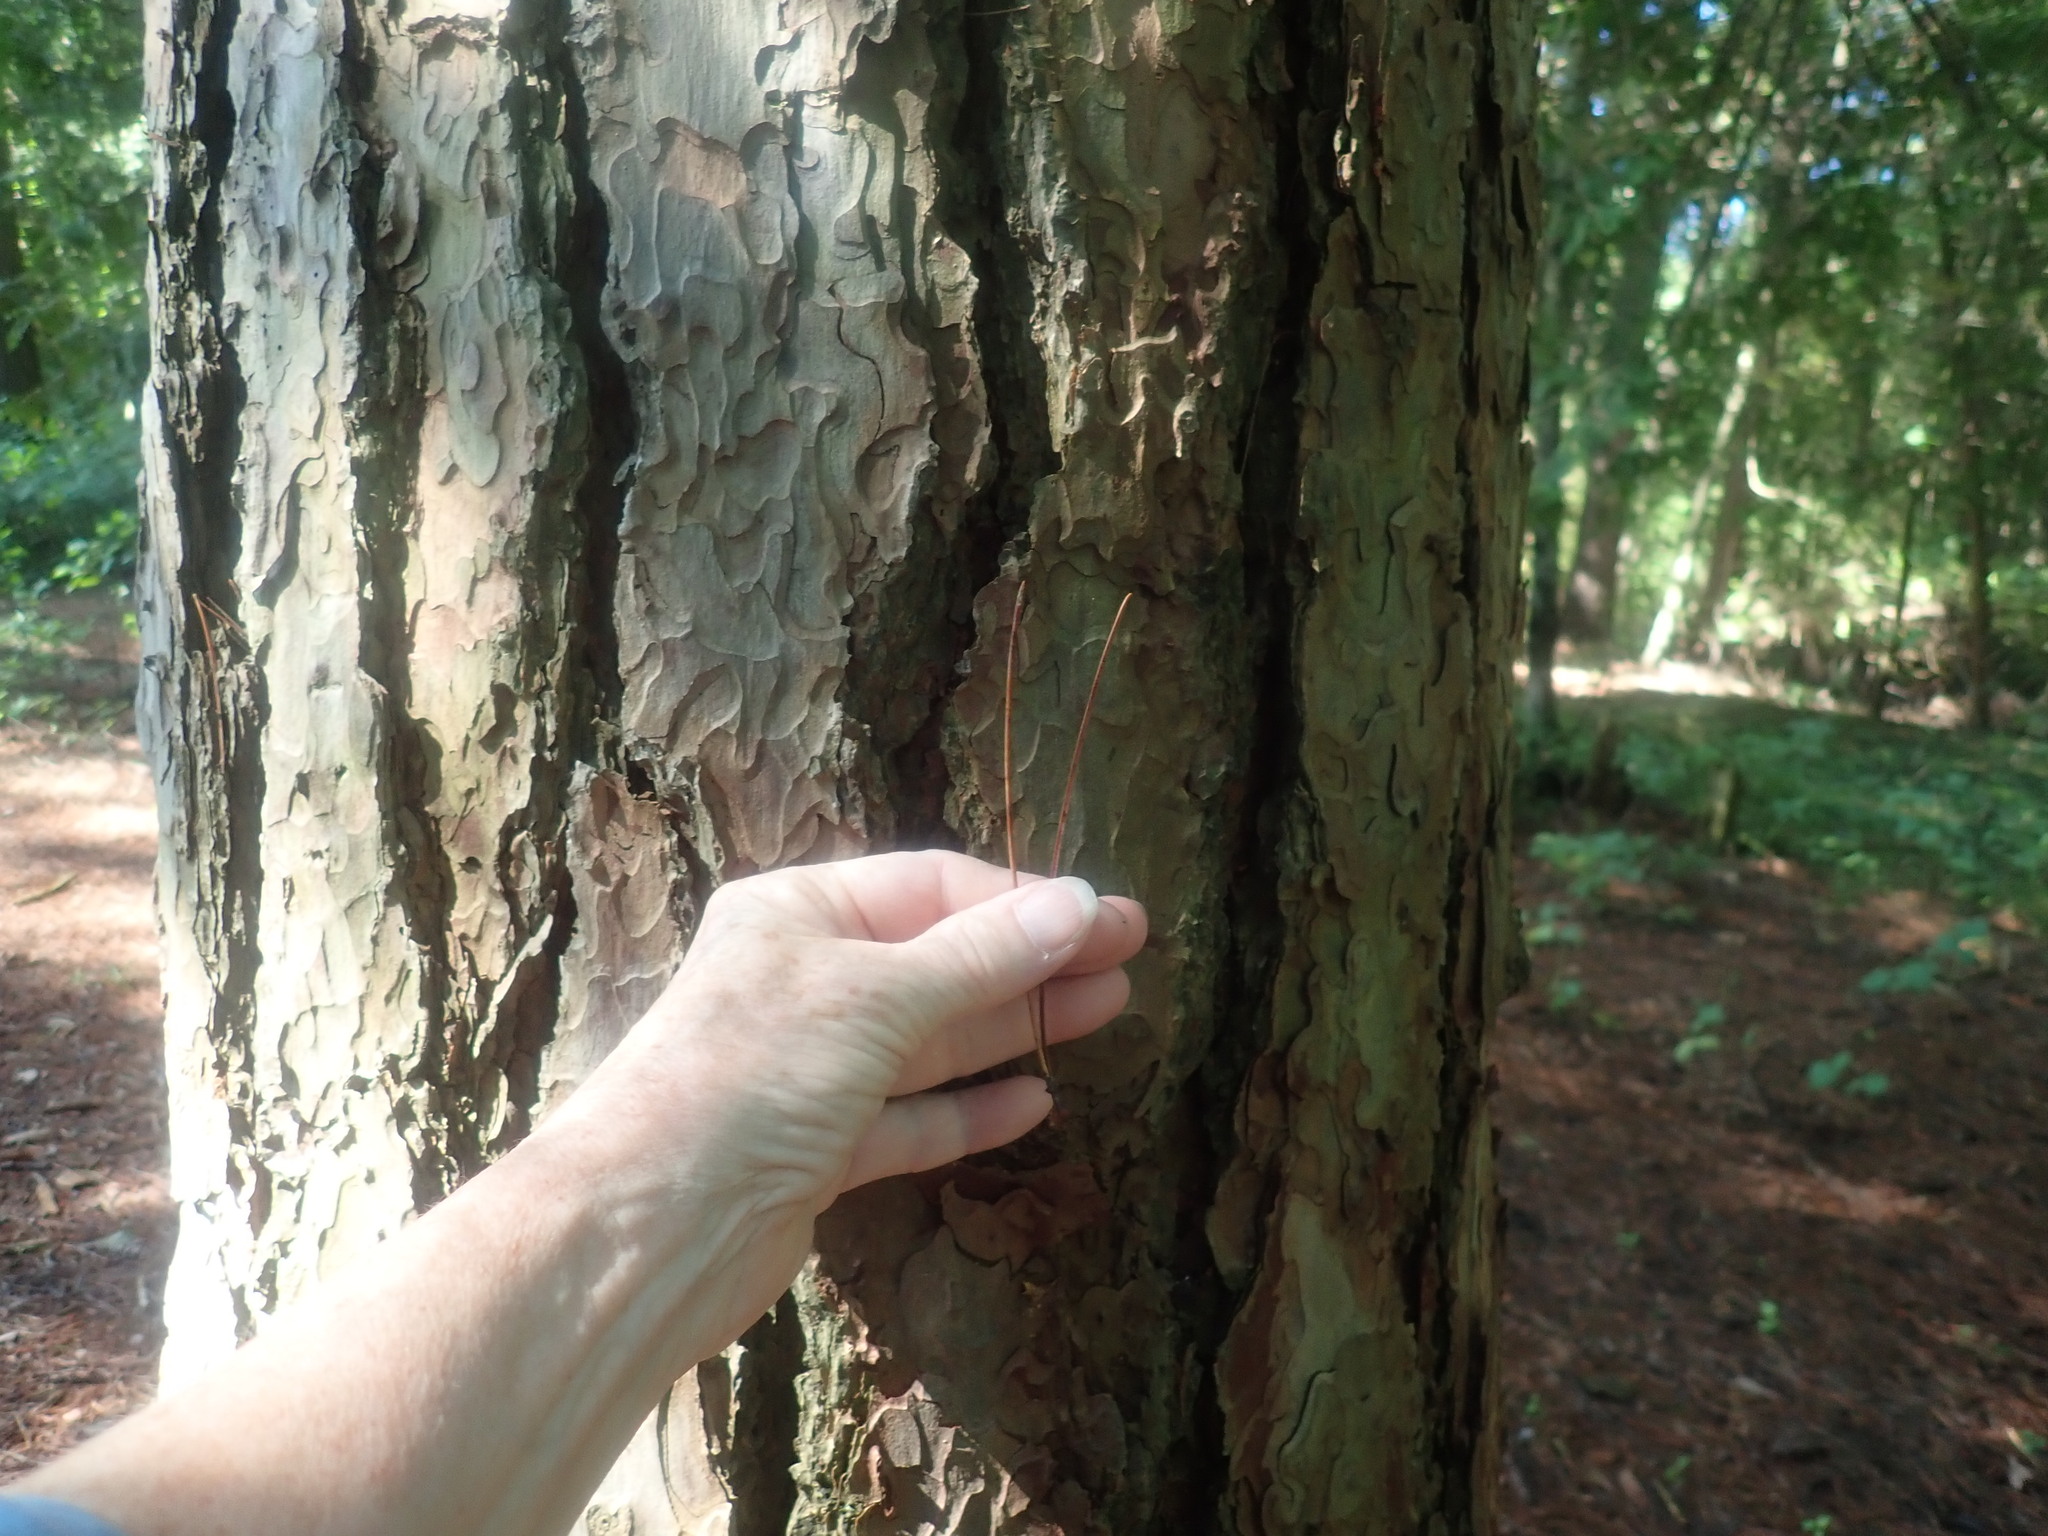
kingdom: Plantae
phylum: Tracheophyta
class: Pinopsida
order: Pinales
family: Pinaceae
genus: Pinus
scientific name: Pinus resinosa
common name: Norway pine
